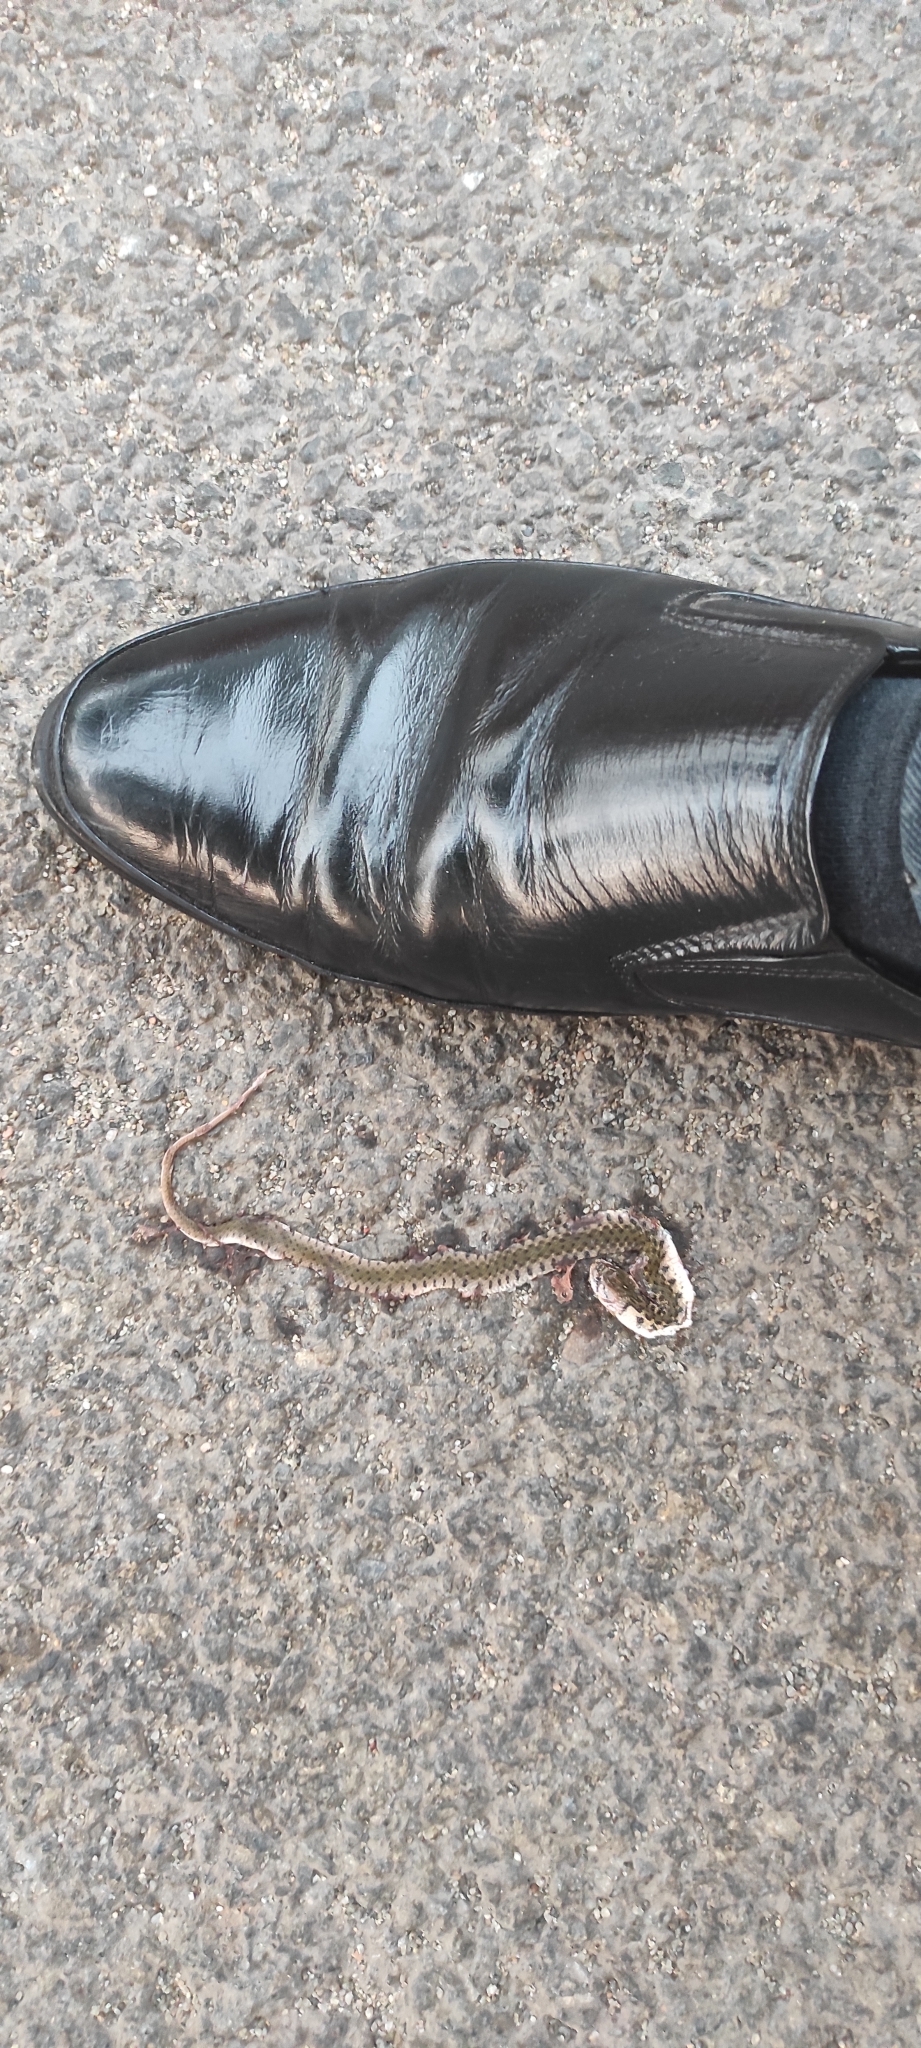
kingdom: Animalia
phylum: Chordata
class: Squamata
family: Colubridae
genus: Fowlea
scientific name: Fowlea piscator
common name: Asiatic water snake
